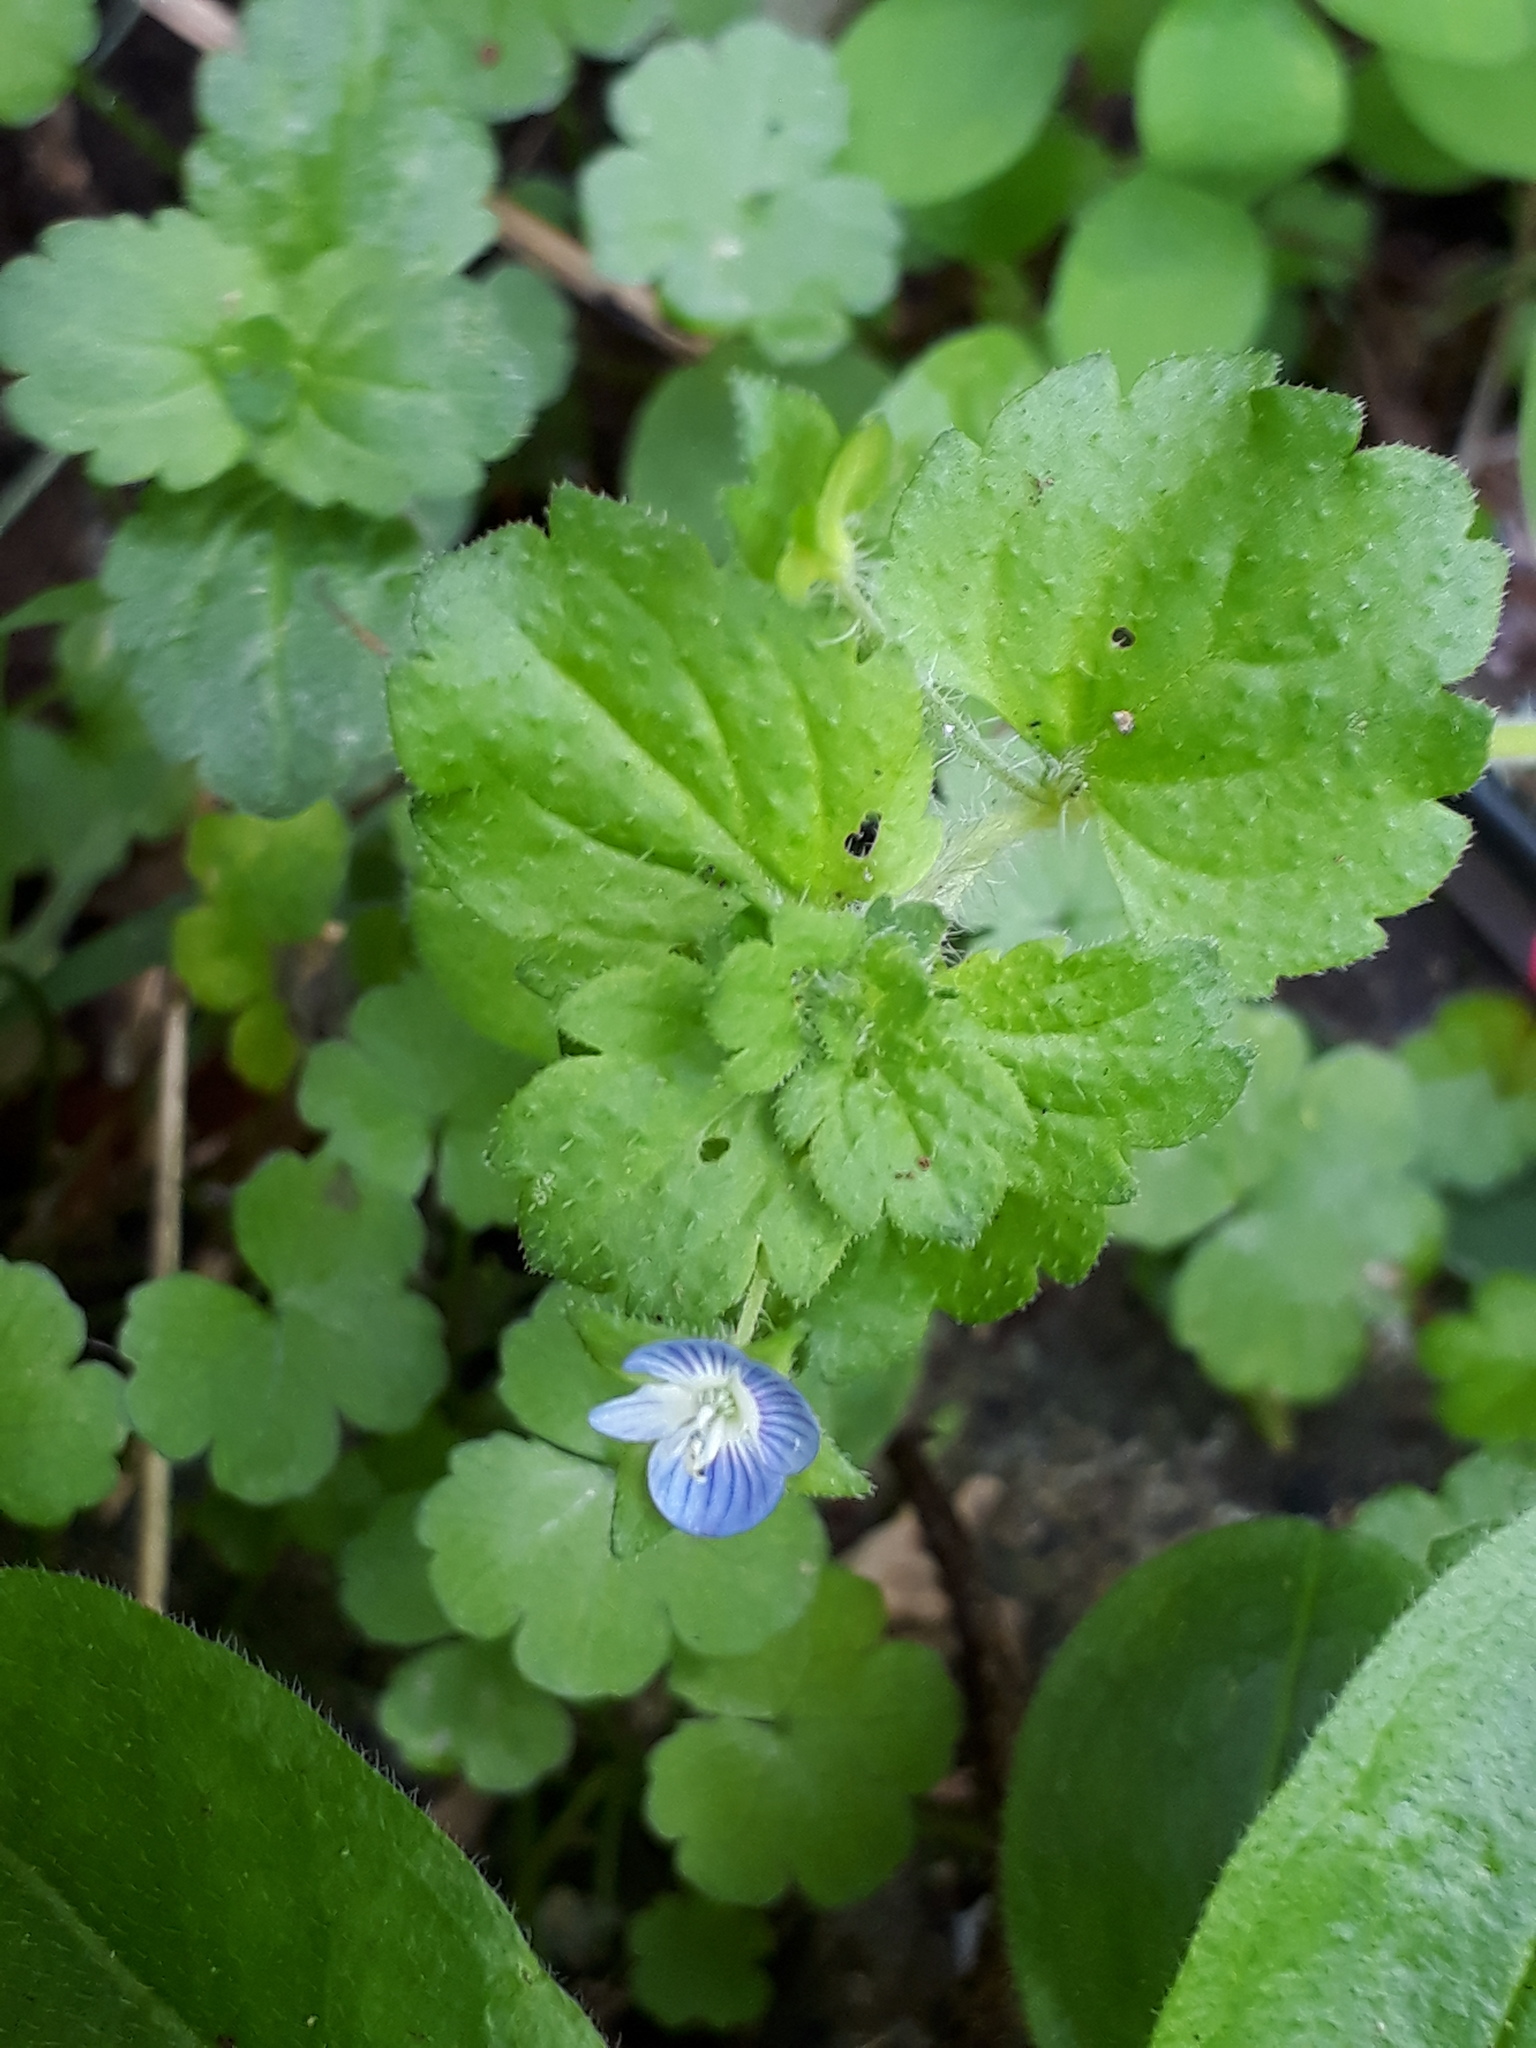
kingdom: Plantae
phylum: Tracheophyta
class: Magnoliopsida
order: Lamiales
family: Plantaginaceae
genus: Veronica
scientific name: Veronica persica
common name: Common field-speedwell
